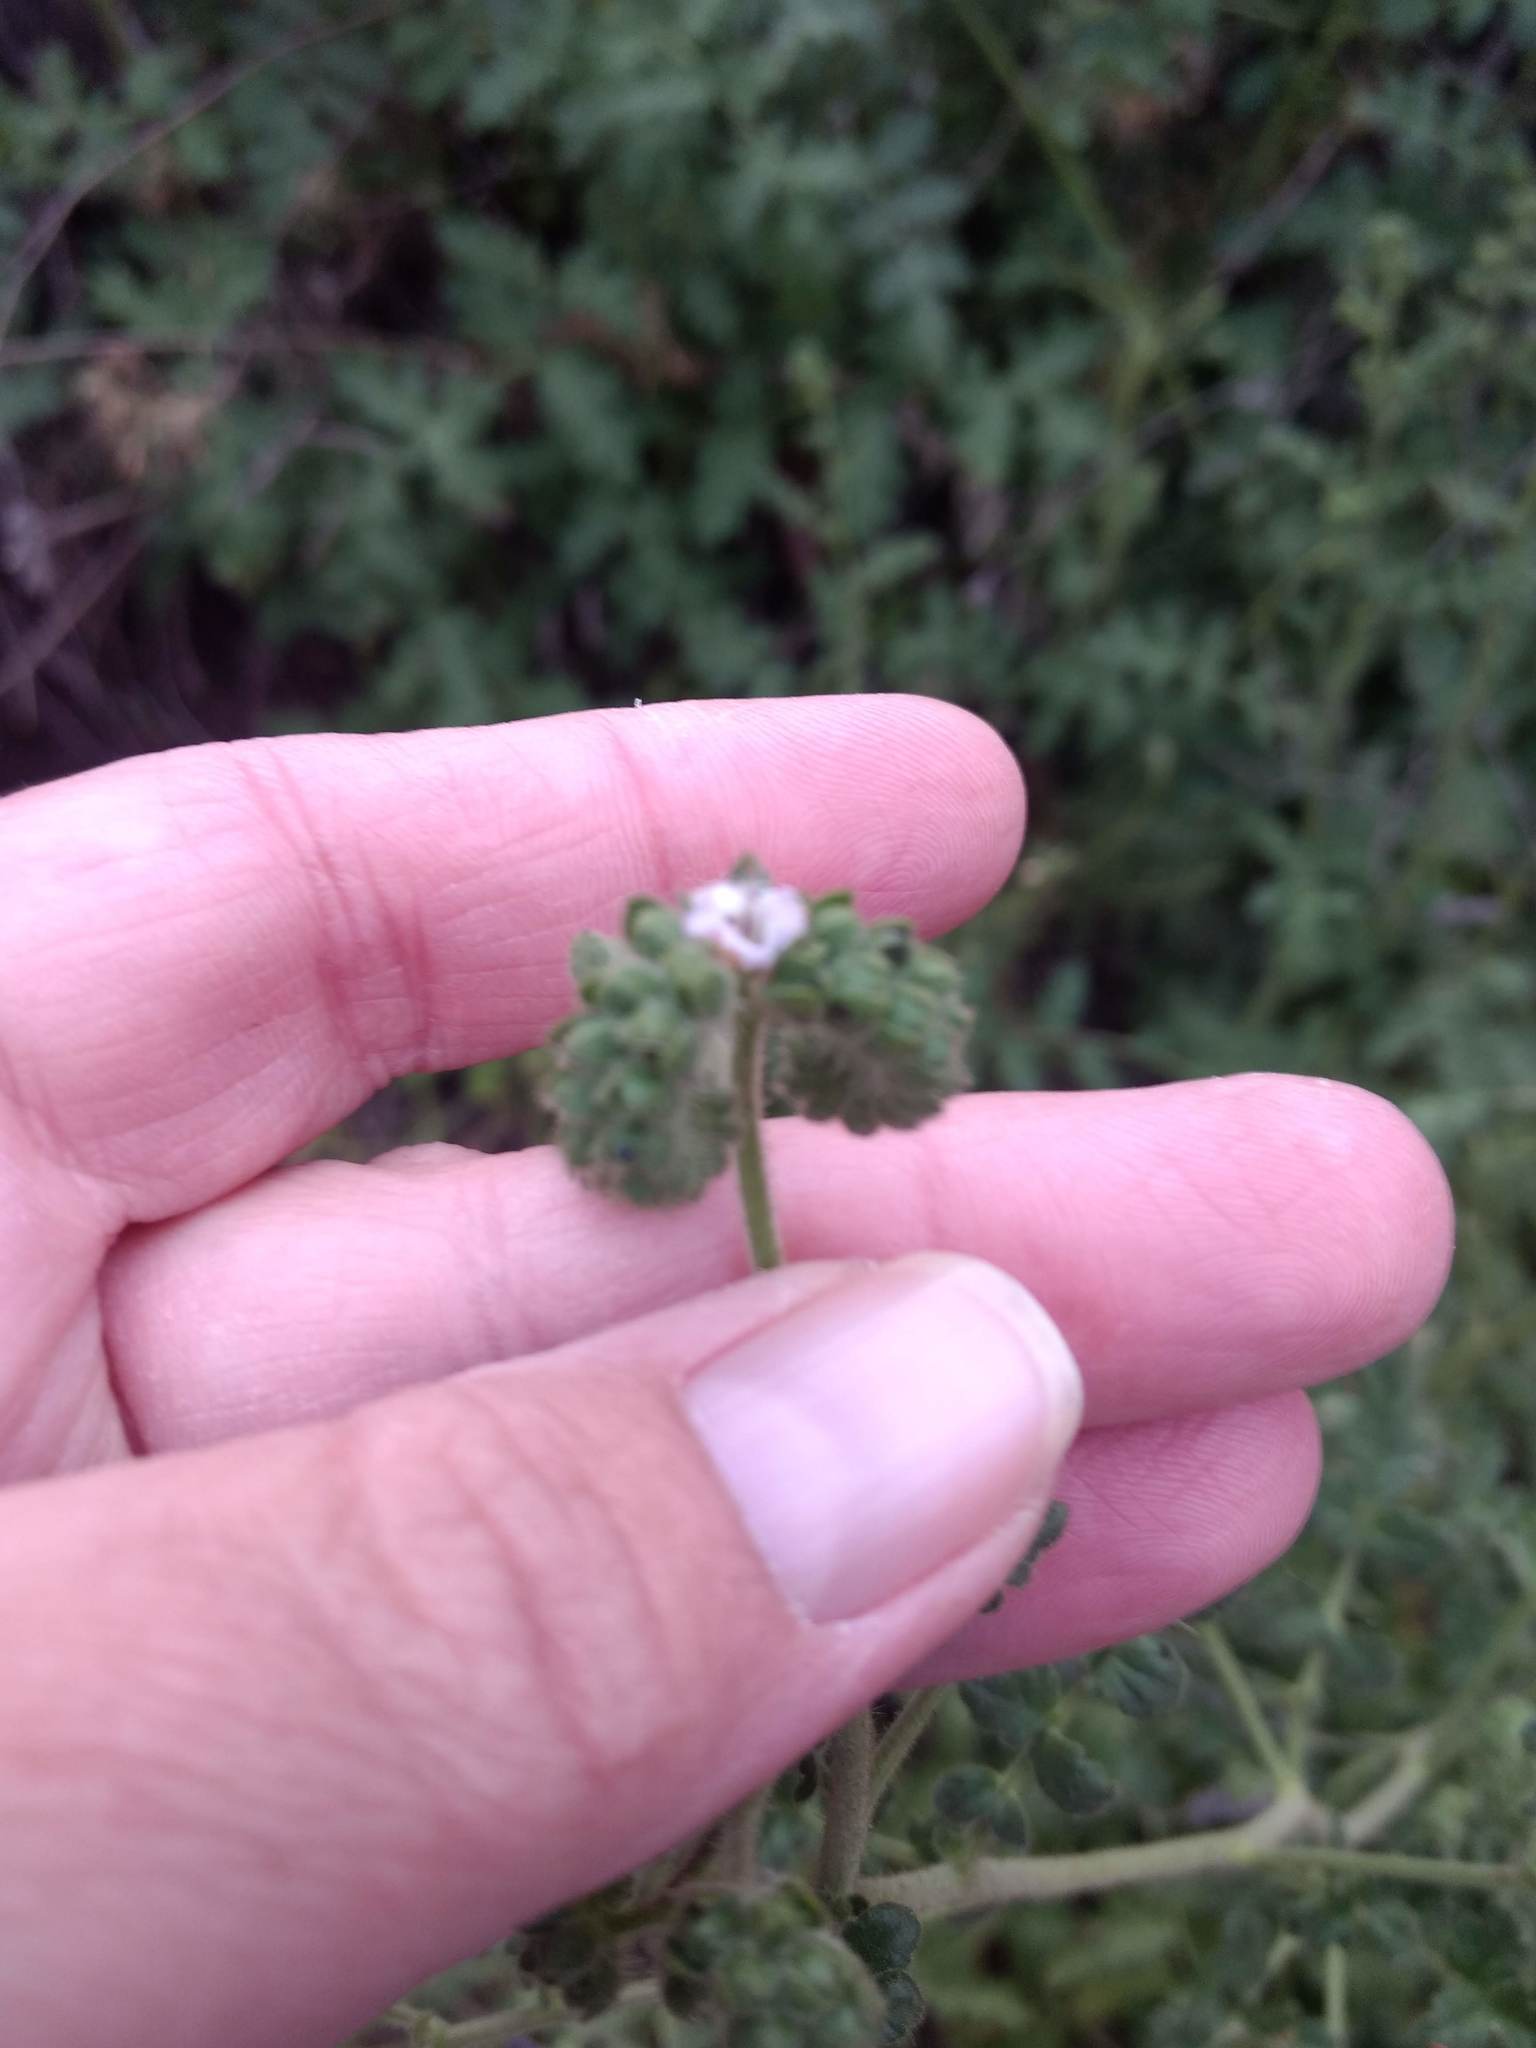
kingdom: Plantae
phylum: Tracheophyta
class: Magnoliopsida
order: Boraginales
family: Hydrophyllaceae
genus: Phacelia
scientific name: Phacelia ramosissima
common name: Branching phacelia
